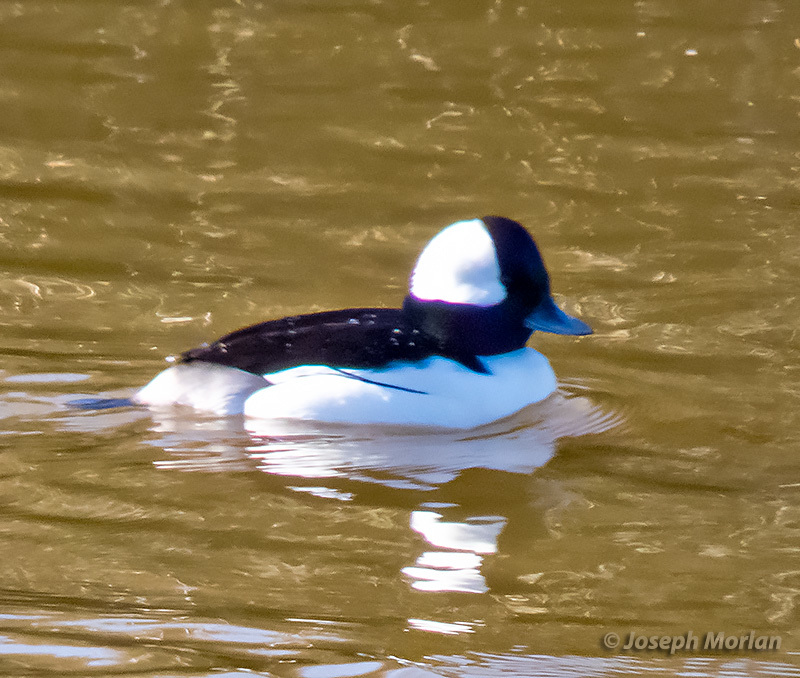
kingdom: Animalia
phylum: Chordata
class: Aves
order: Anseriformes
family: Anatidae
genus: Bucephala
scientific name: Bucephala albeola
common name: Bufflehead
